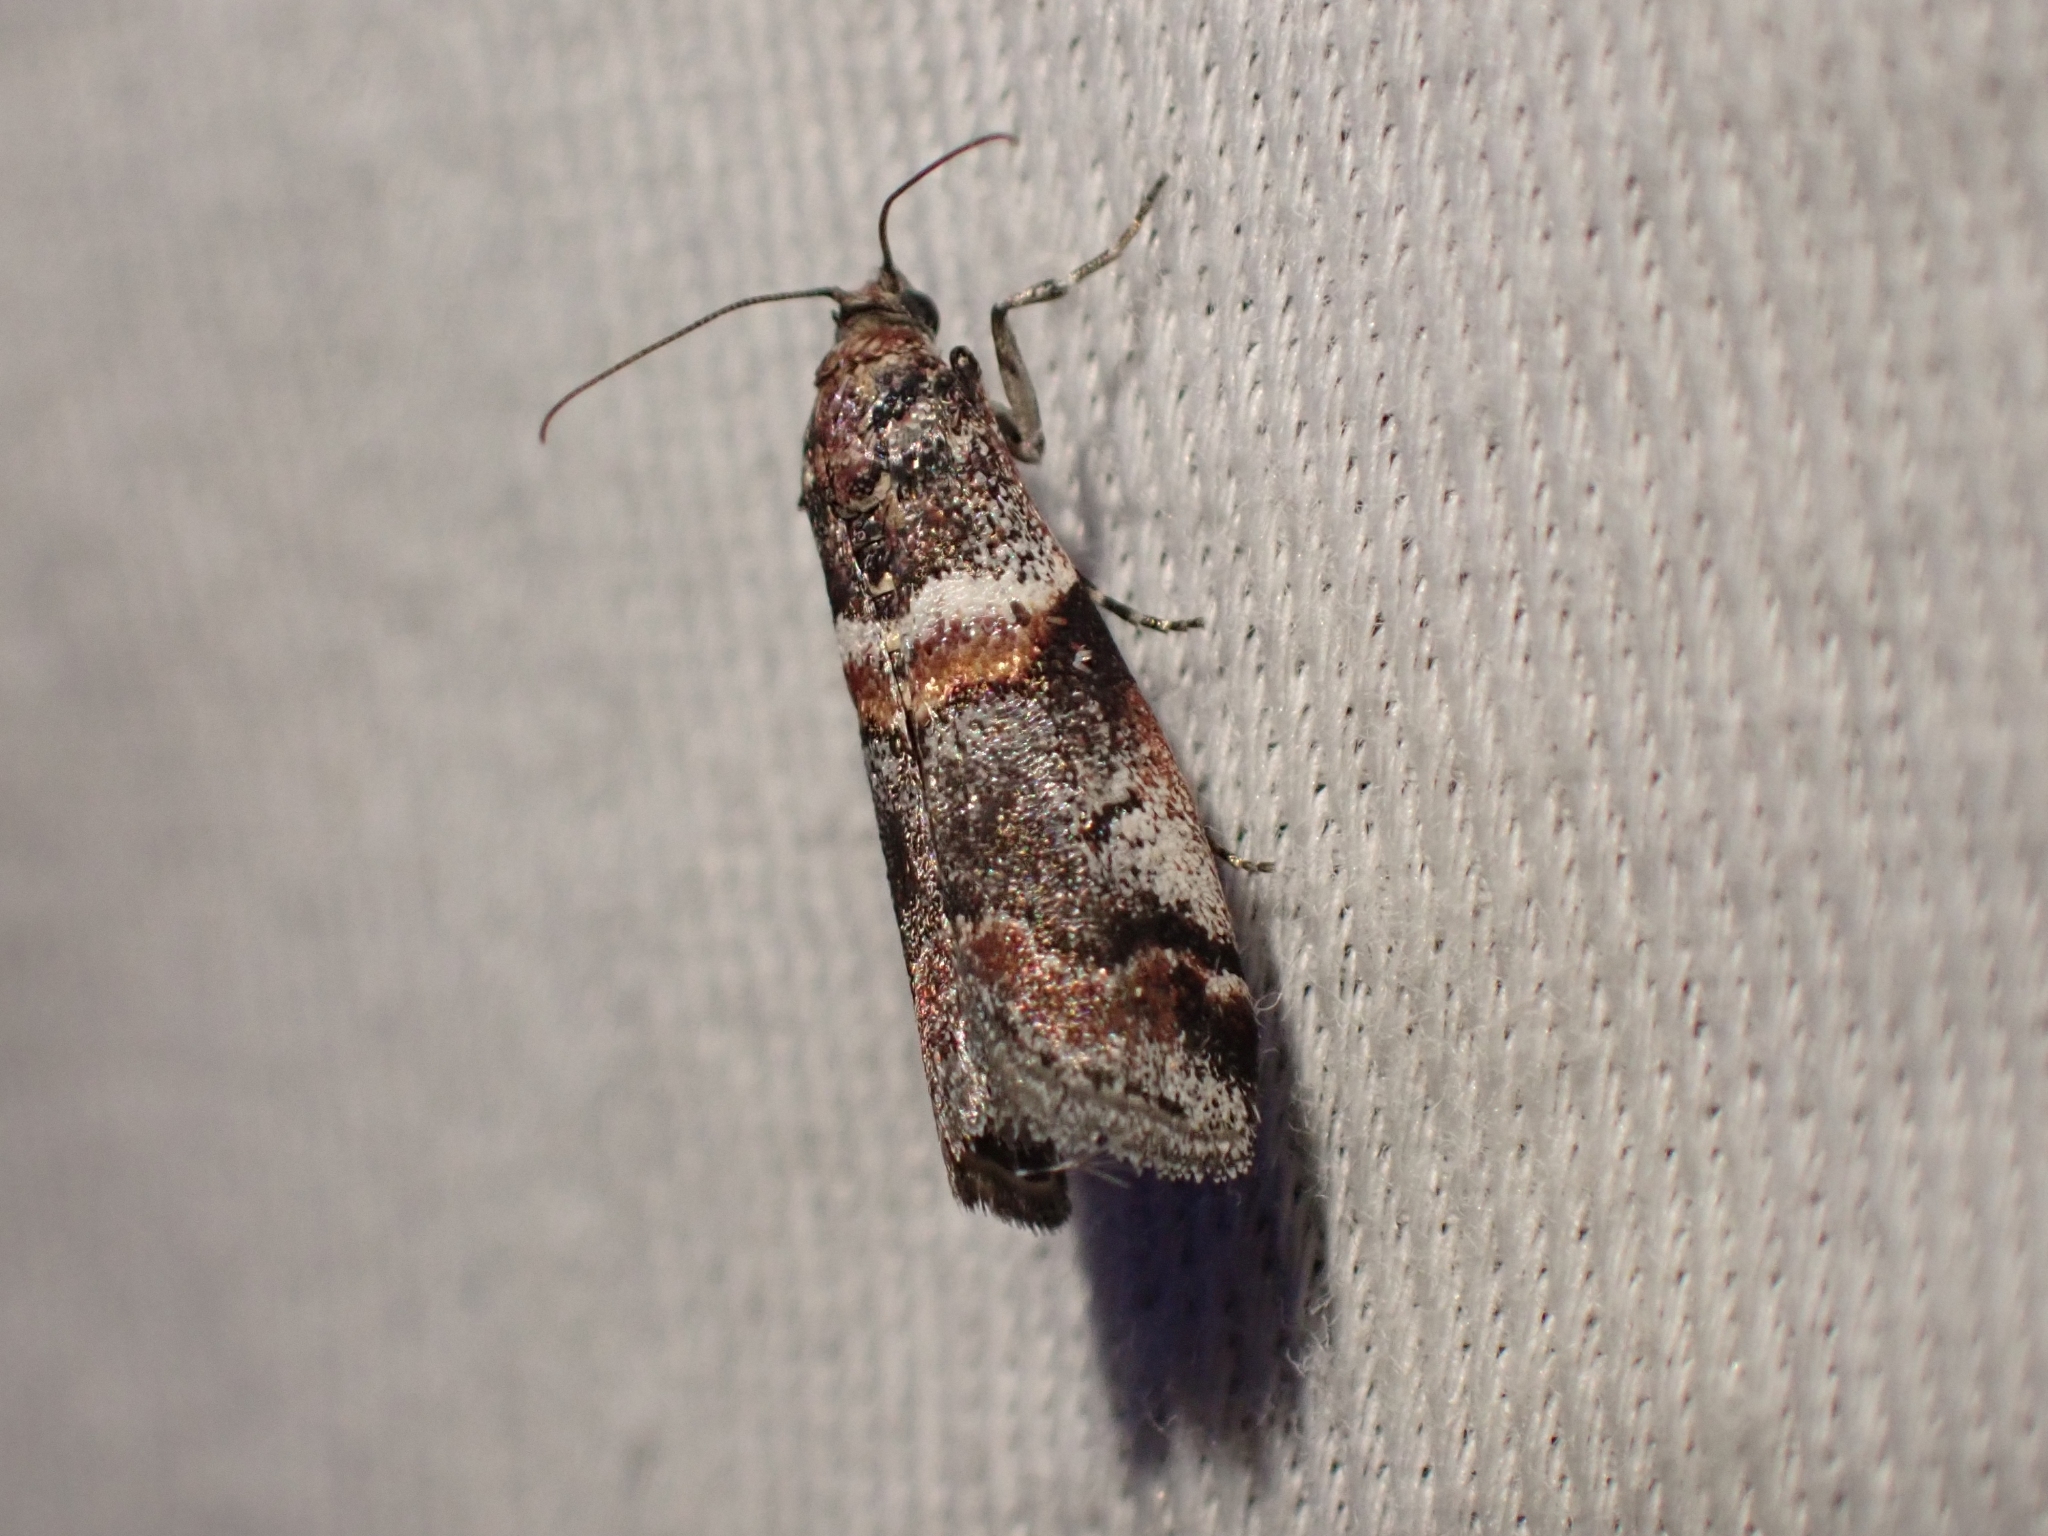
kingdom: Animalia
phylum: Arthropoda
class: Insecta
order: Lepidoptera
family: Pyralidae
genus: Acrobasis
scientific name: Acrobasis tricolorella
